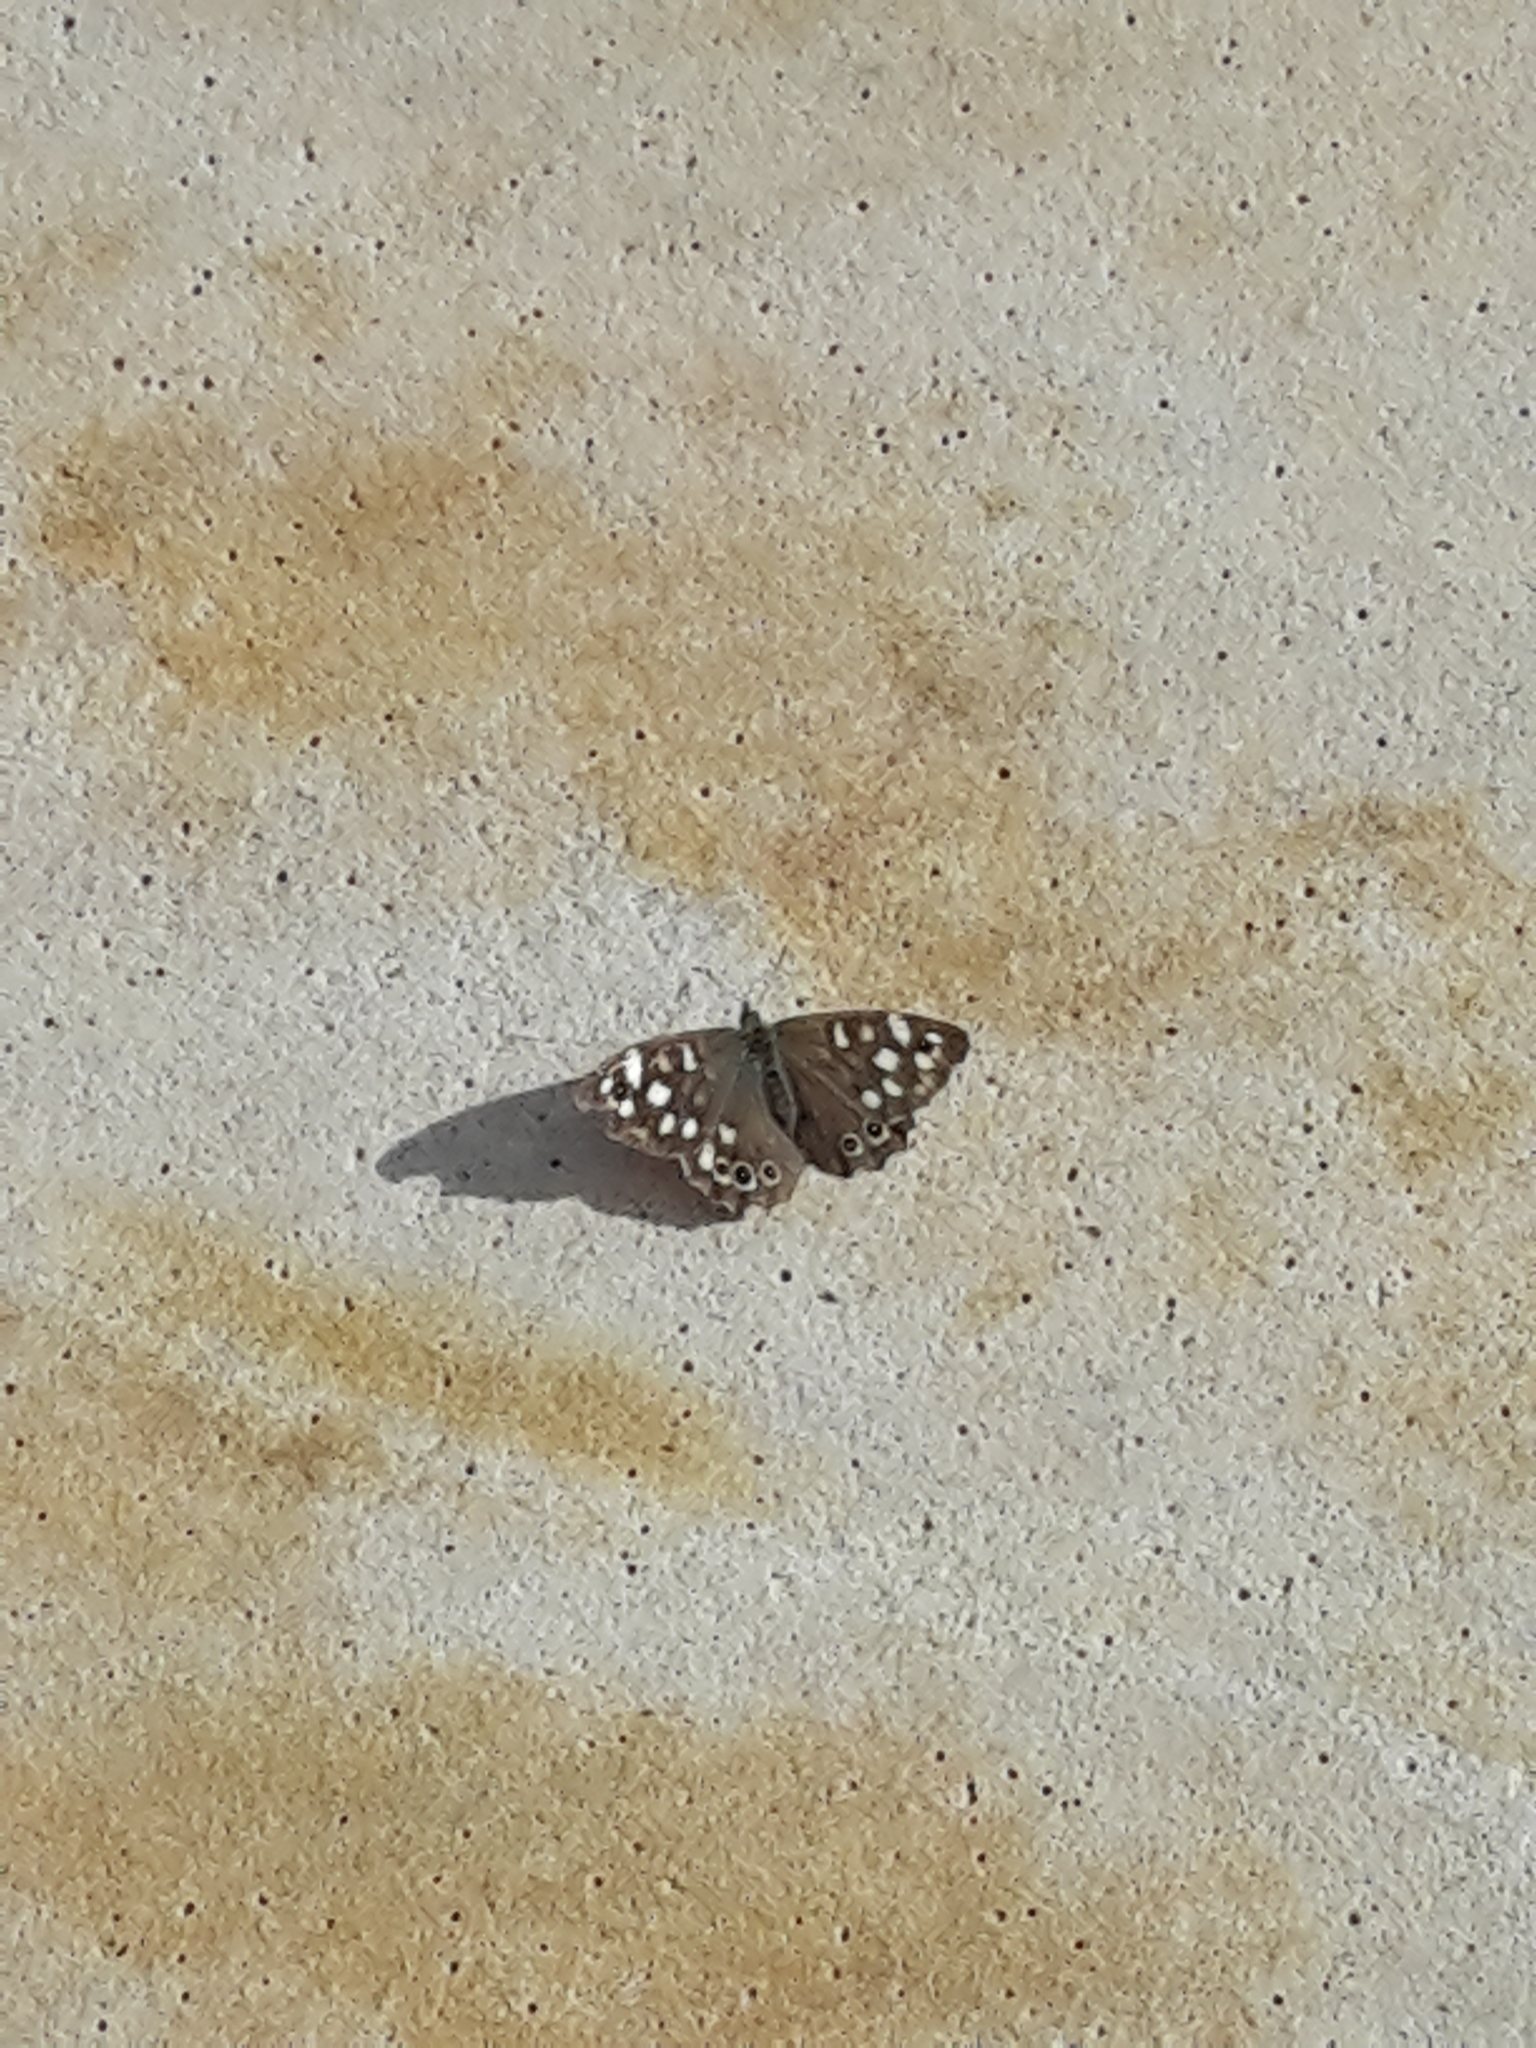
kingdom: Animalia
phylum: Arthropoda
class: Insecta
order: Lepidoptera
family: Nymphalidae
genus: Pararge
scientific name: Pararge aegeria
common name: Speckled wood
